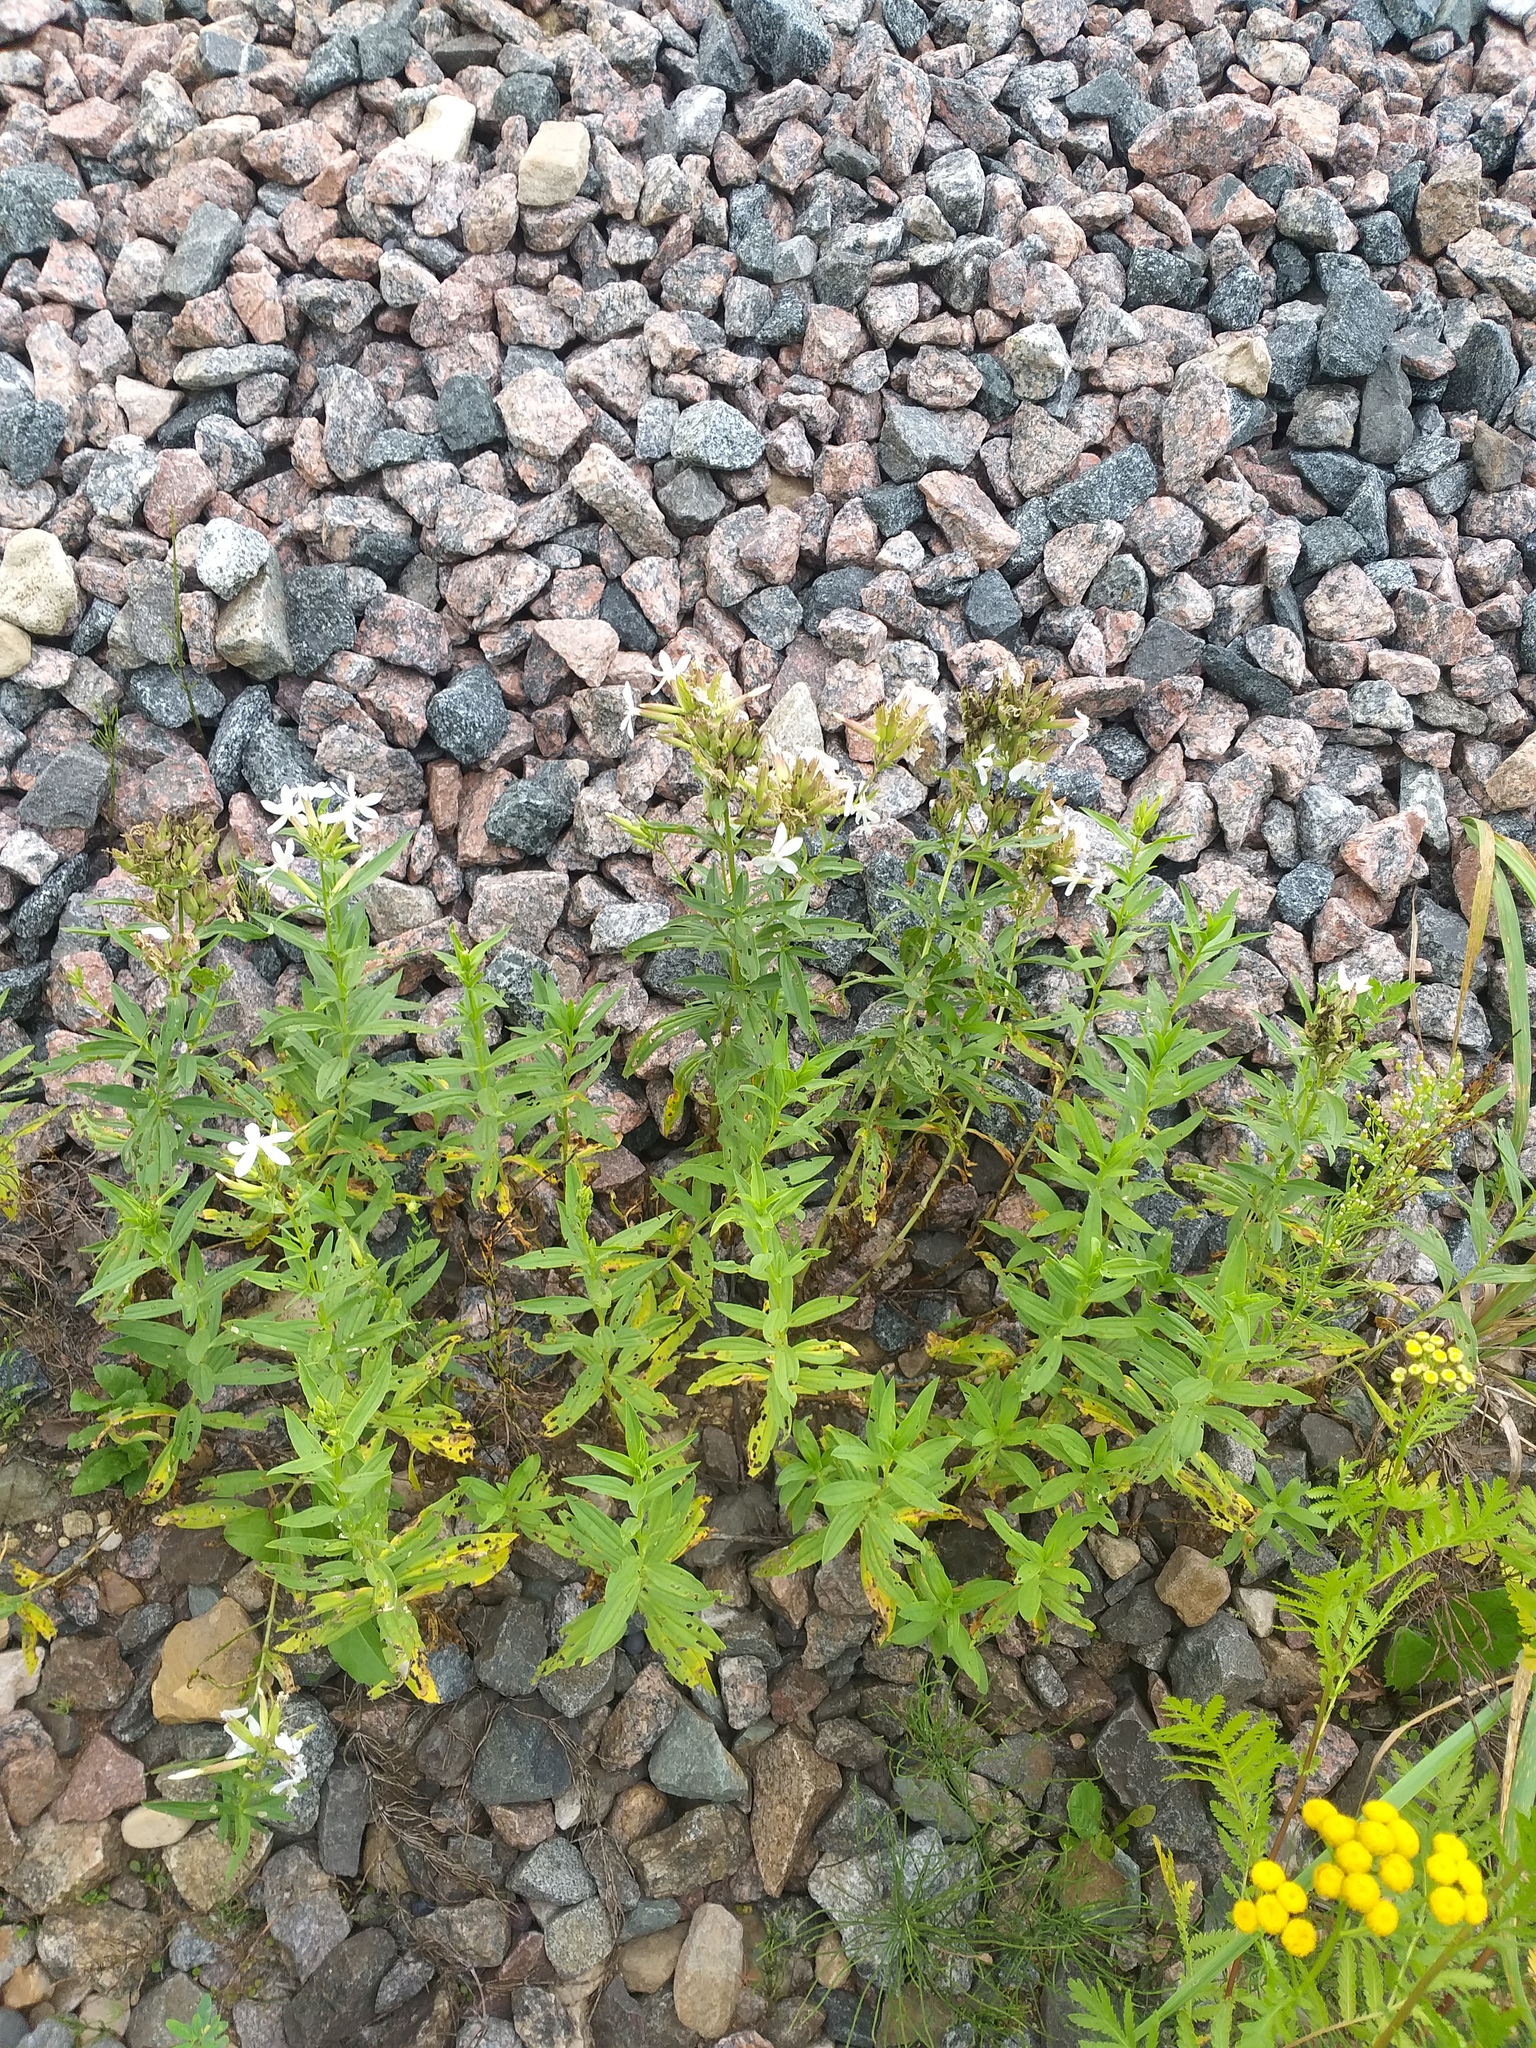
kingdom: Plantae
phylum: Tracheophyta
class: Magnoliopsida
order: Caryophyllales
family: Caryophyllaceae
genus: Saponaria
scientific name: Saponaria officinalis
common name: Soapwort
